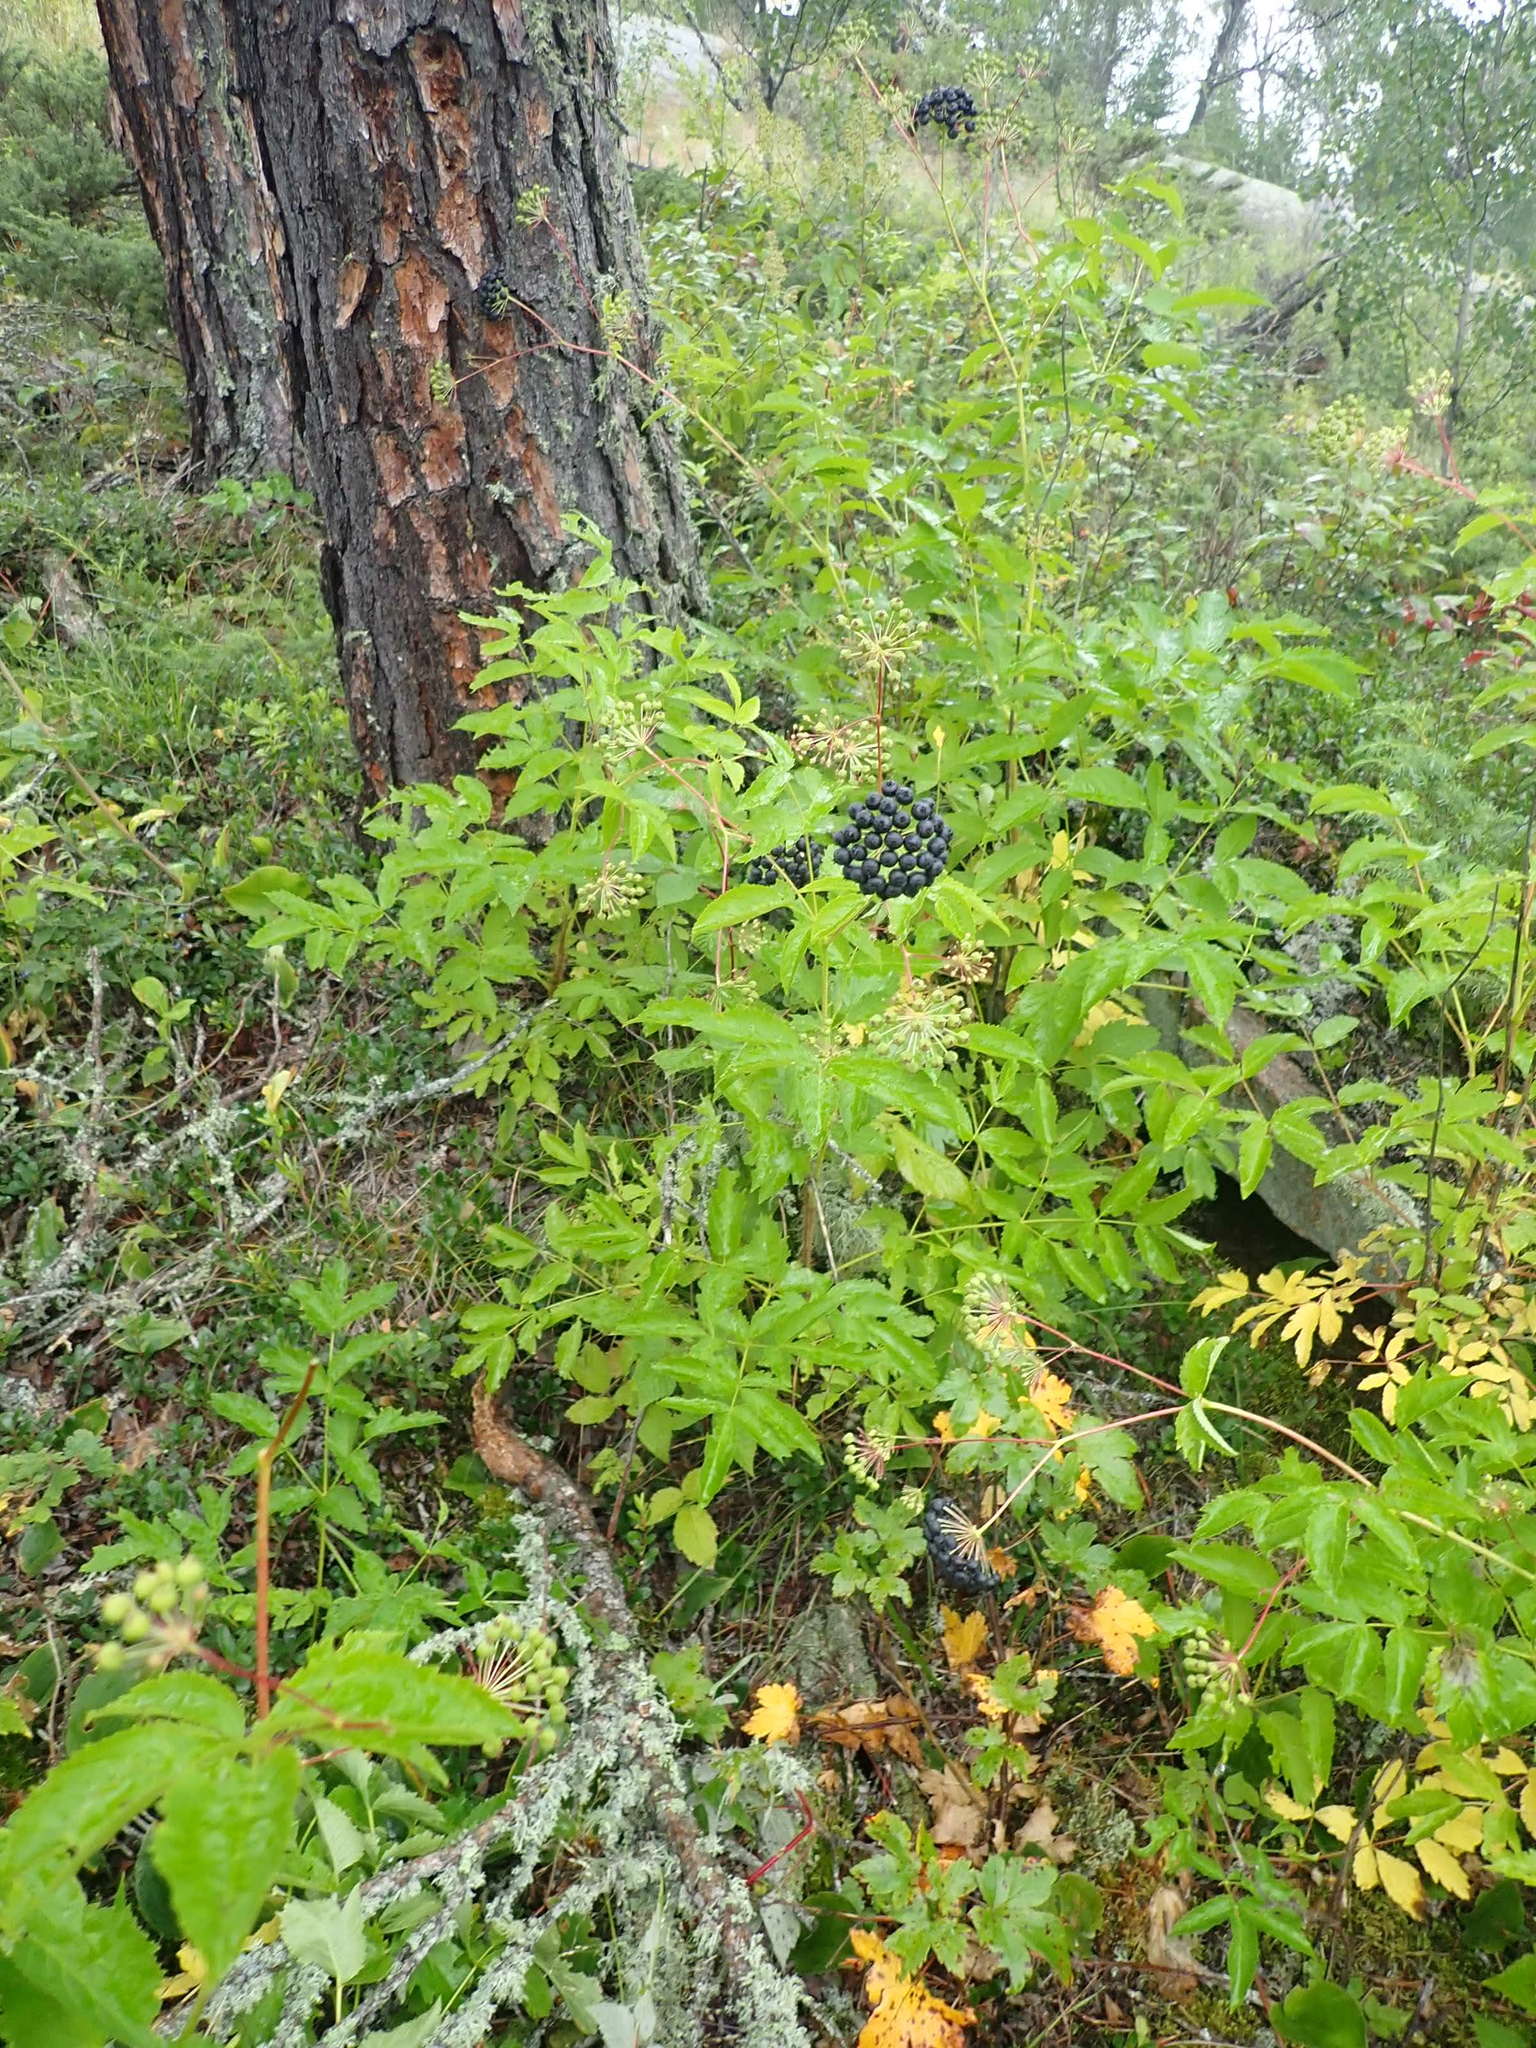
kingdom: Plantae
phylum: Tracheophyta
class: Magnoliopsida
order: Apiales
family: Araliaceae
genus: Aralia
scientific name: Aralia hispida
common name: Bristly sarsaparilla
